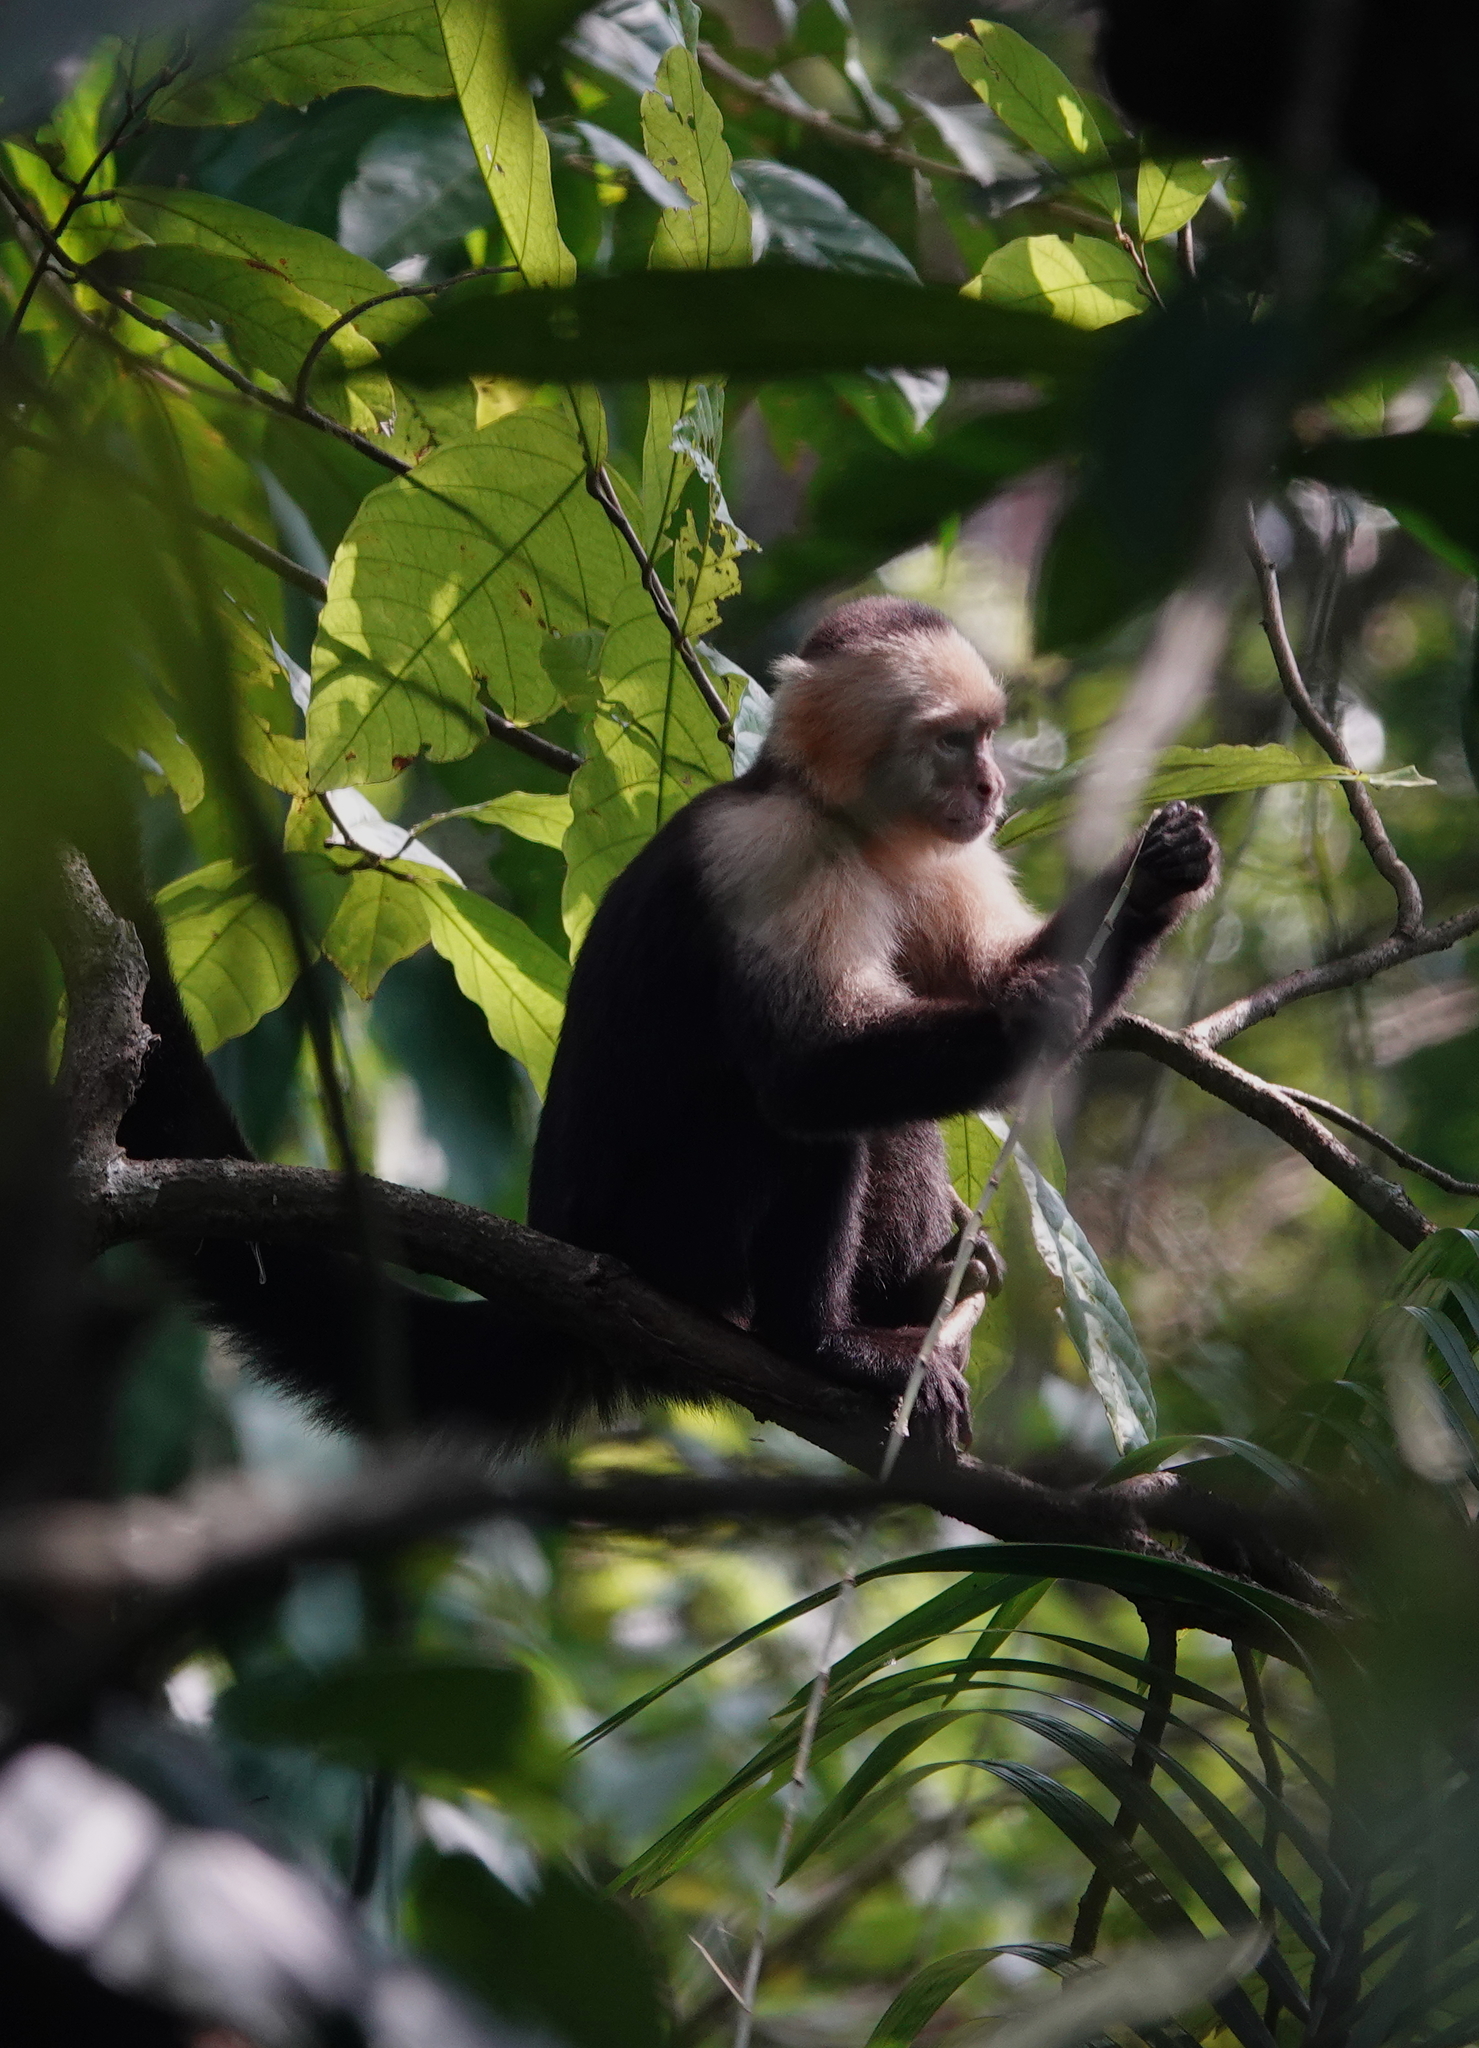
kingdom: Animalia
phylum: Chordata
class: Mammalia
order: Primates
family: Cebidae
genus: Cebus
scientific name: Cebus imitator
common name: Panamanian white-faced capuchin
